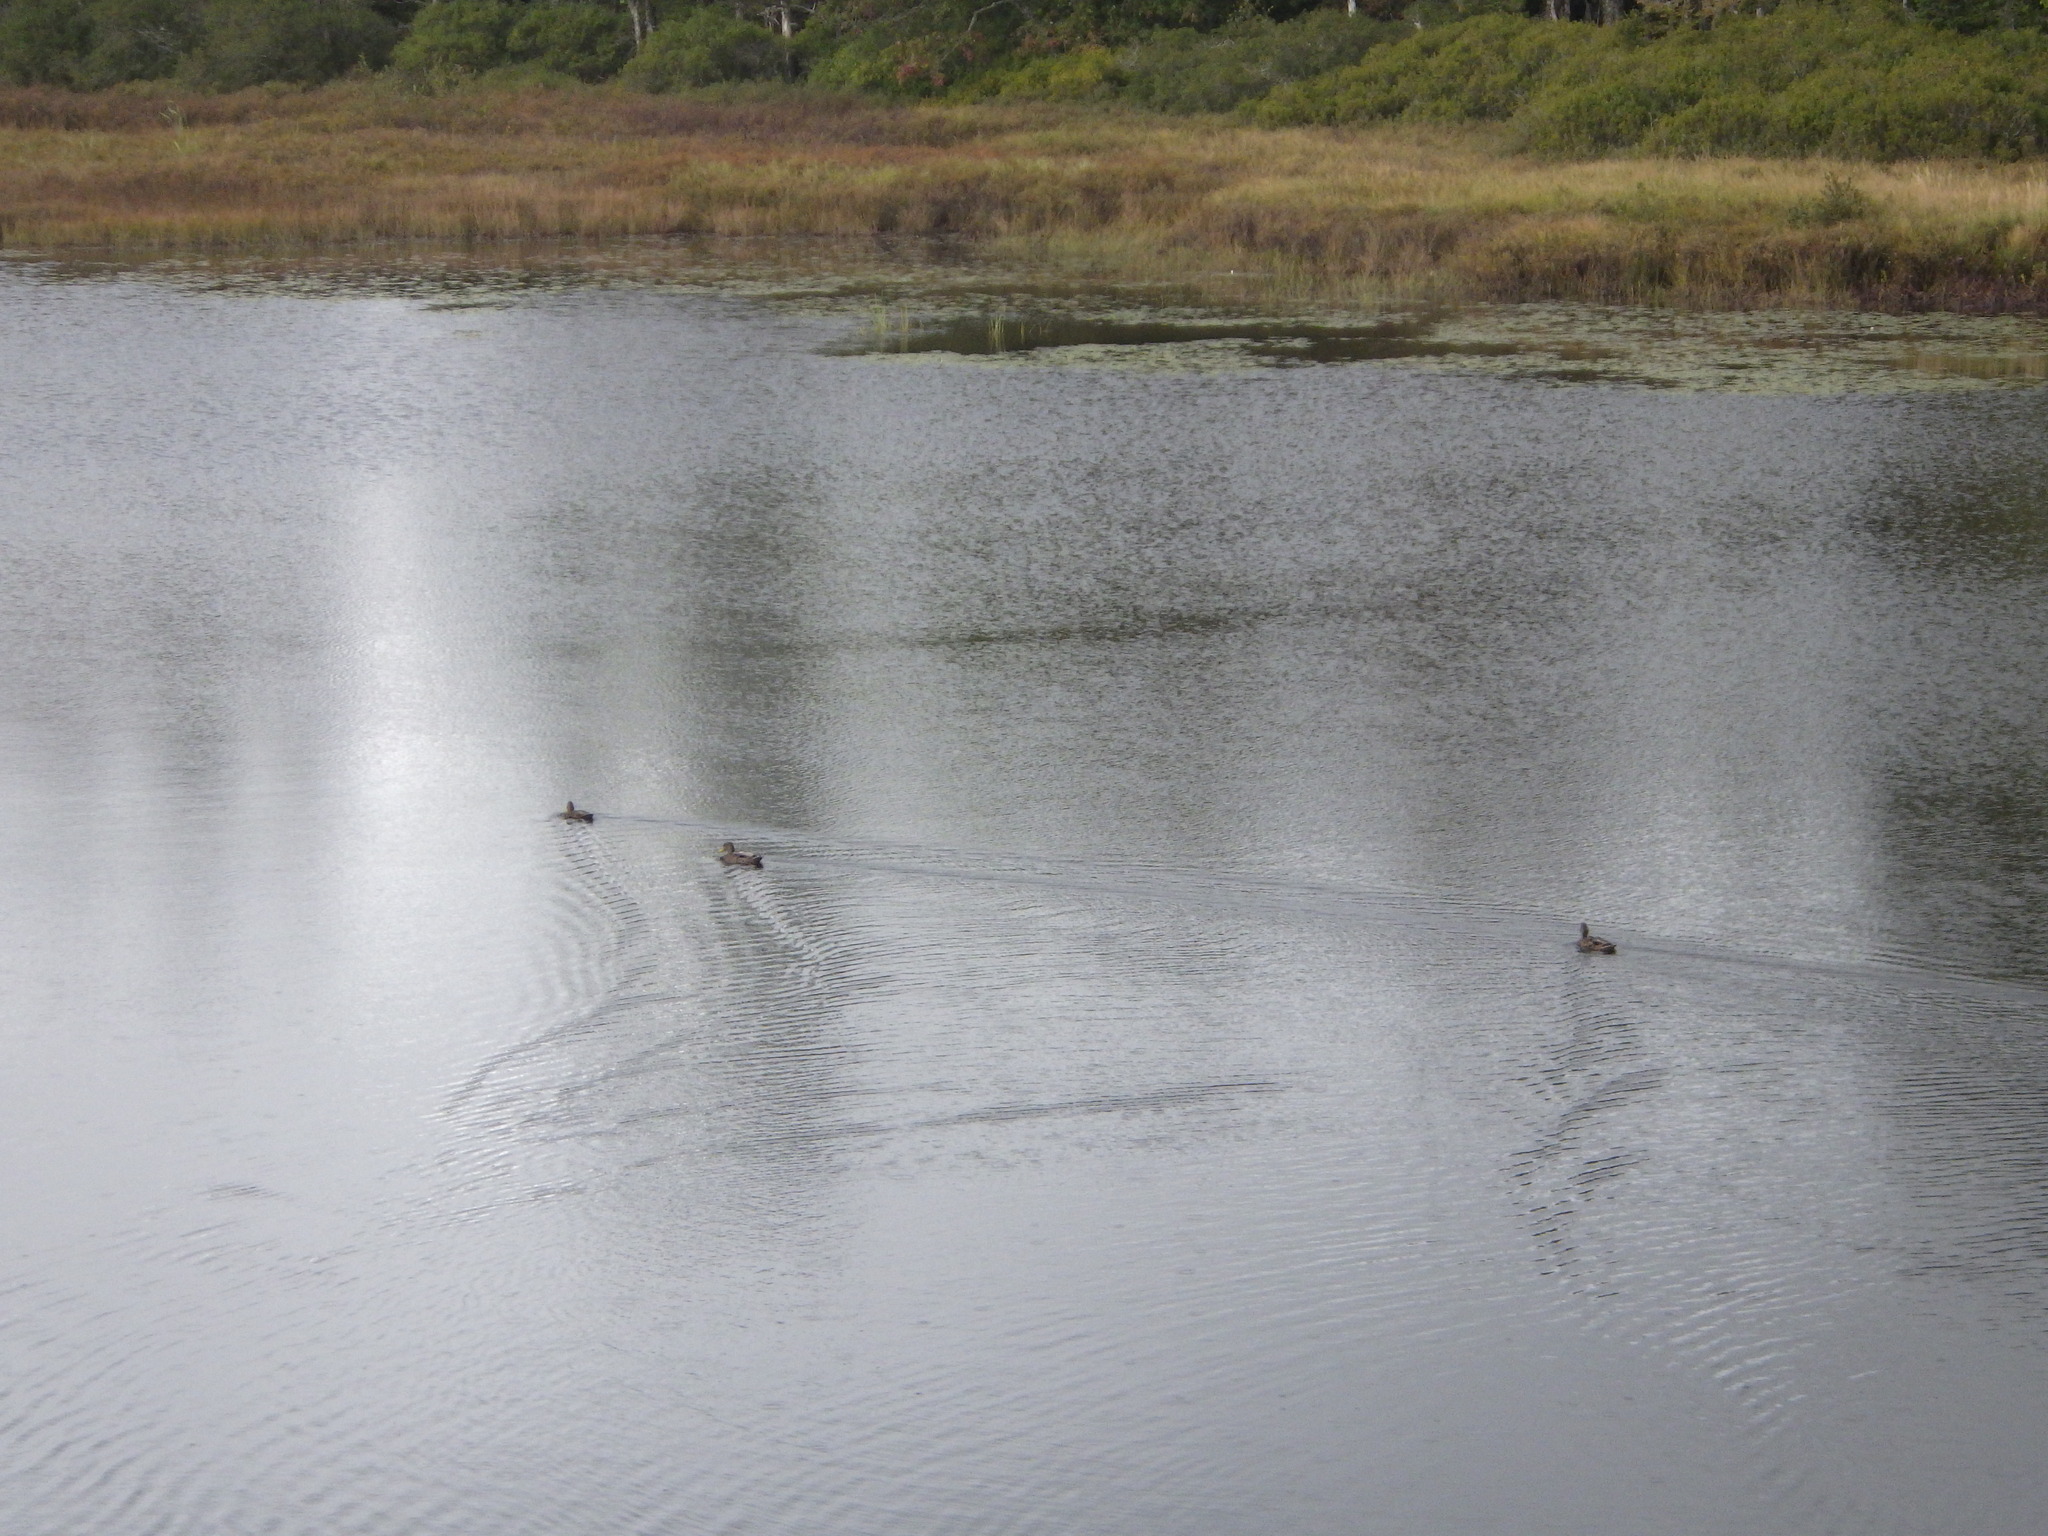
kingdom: Animalia
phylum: Chordata
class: Aves
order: Anseriformes
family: Anatidae
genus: Anas
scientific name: Anas platyrhynchos
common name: Mallard
